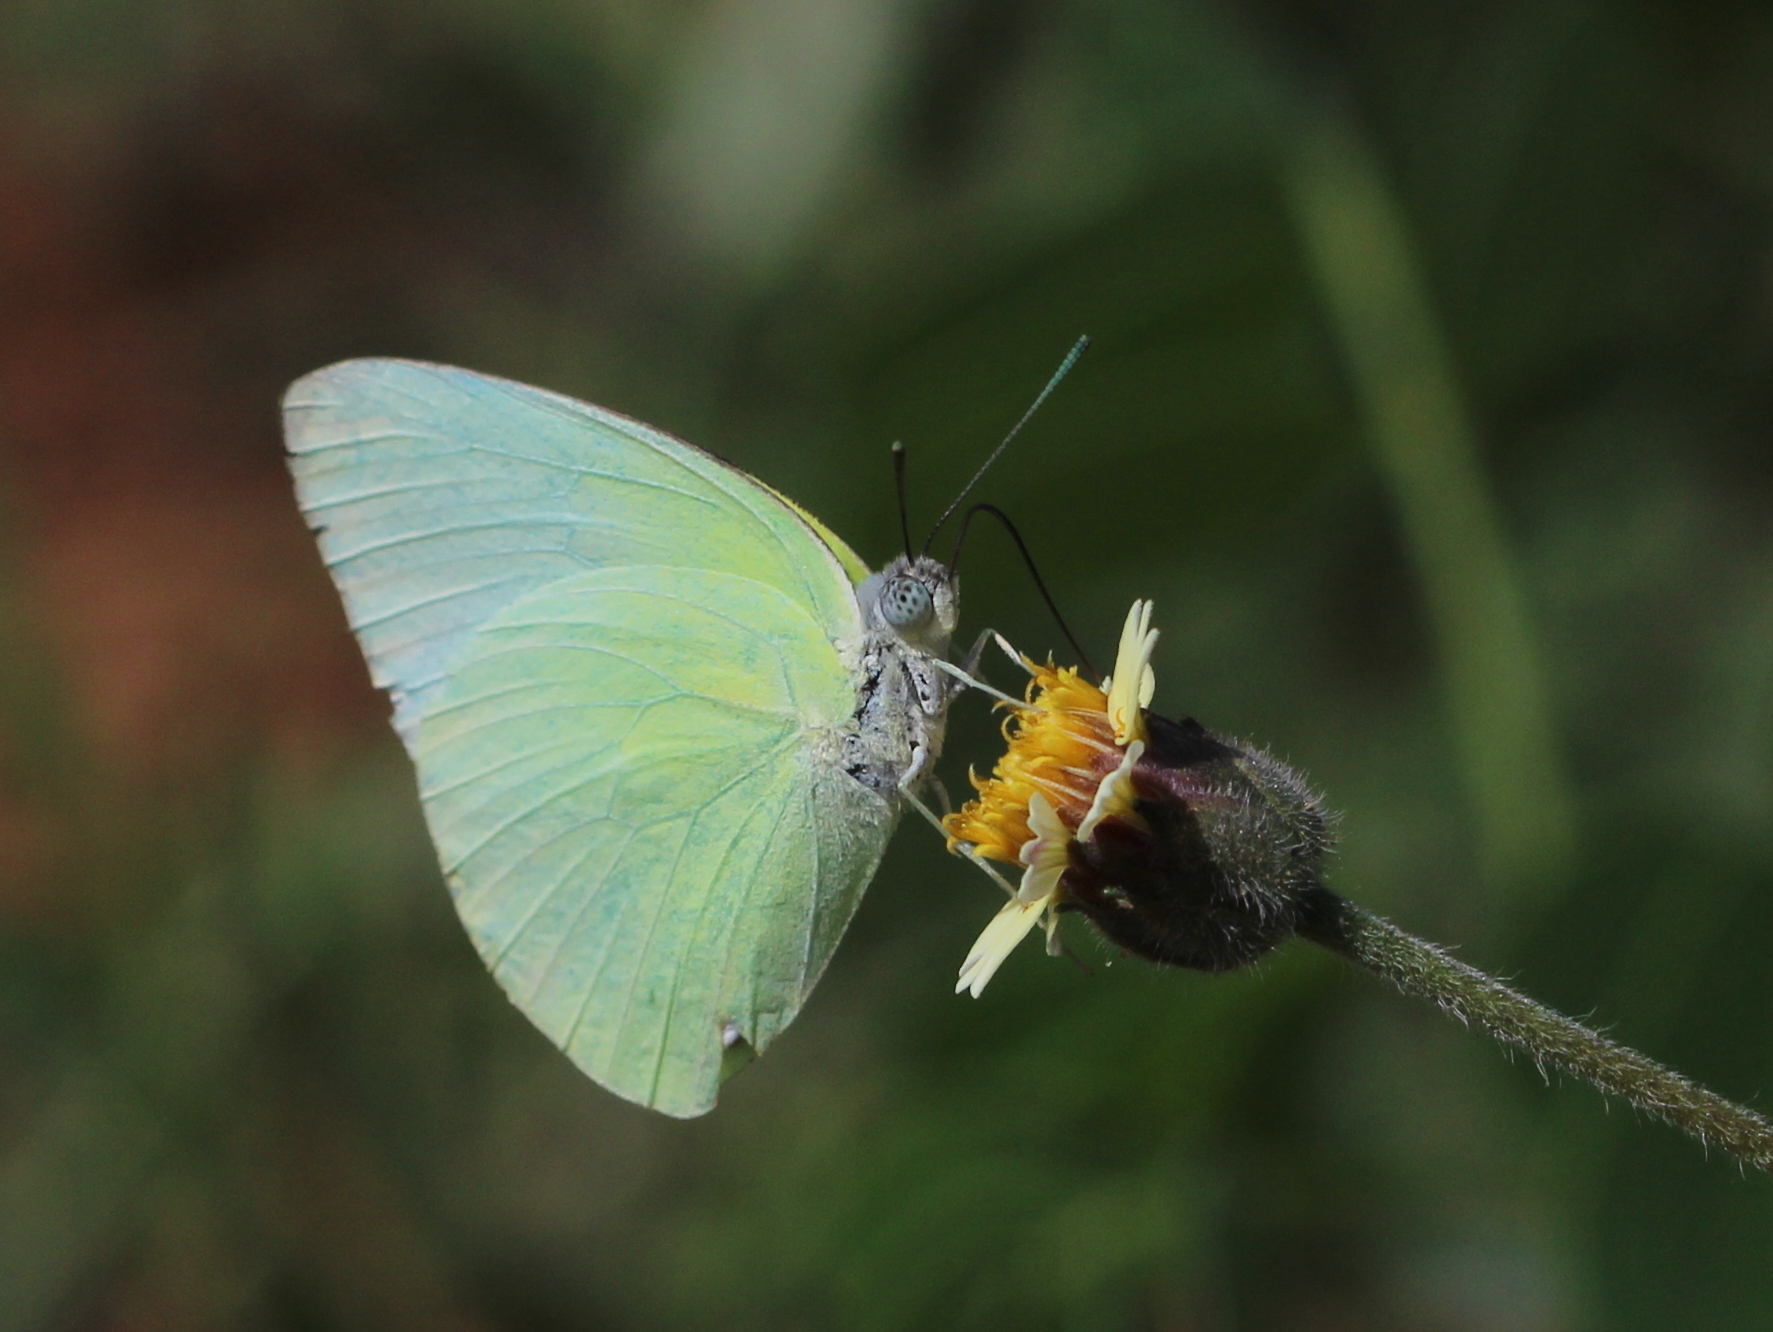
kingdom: Animalia
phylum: Arthropoda
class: Insecta
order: Lepidoptera
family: Pieridae
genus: Catopsilia
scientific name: Catopsilia pomona
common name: Common emigrant
